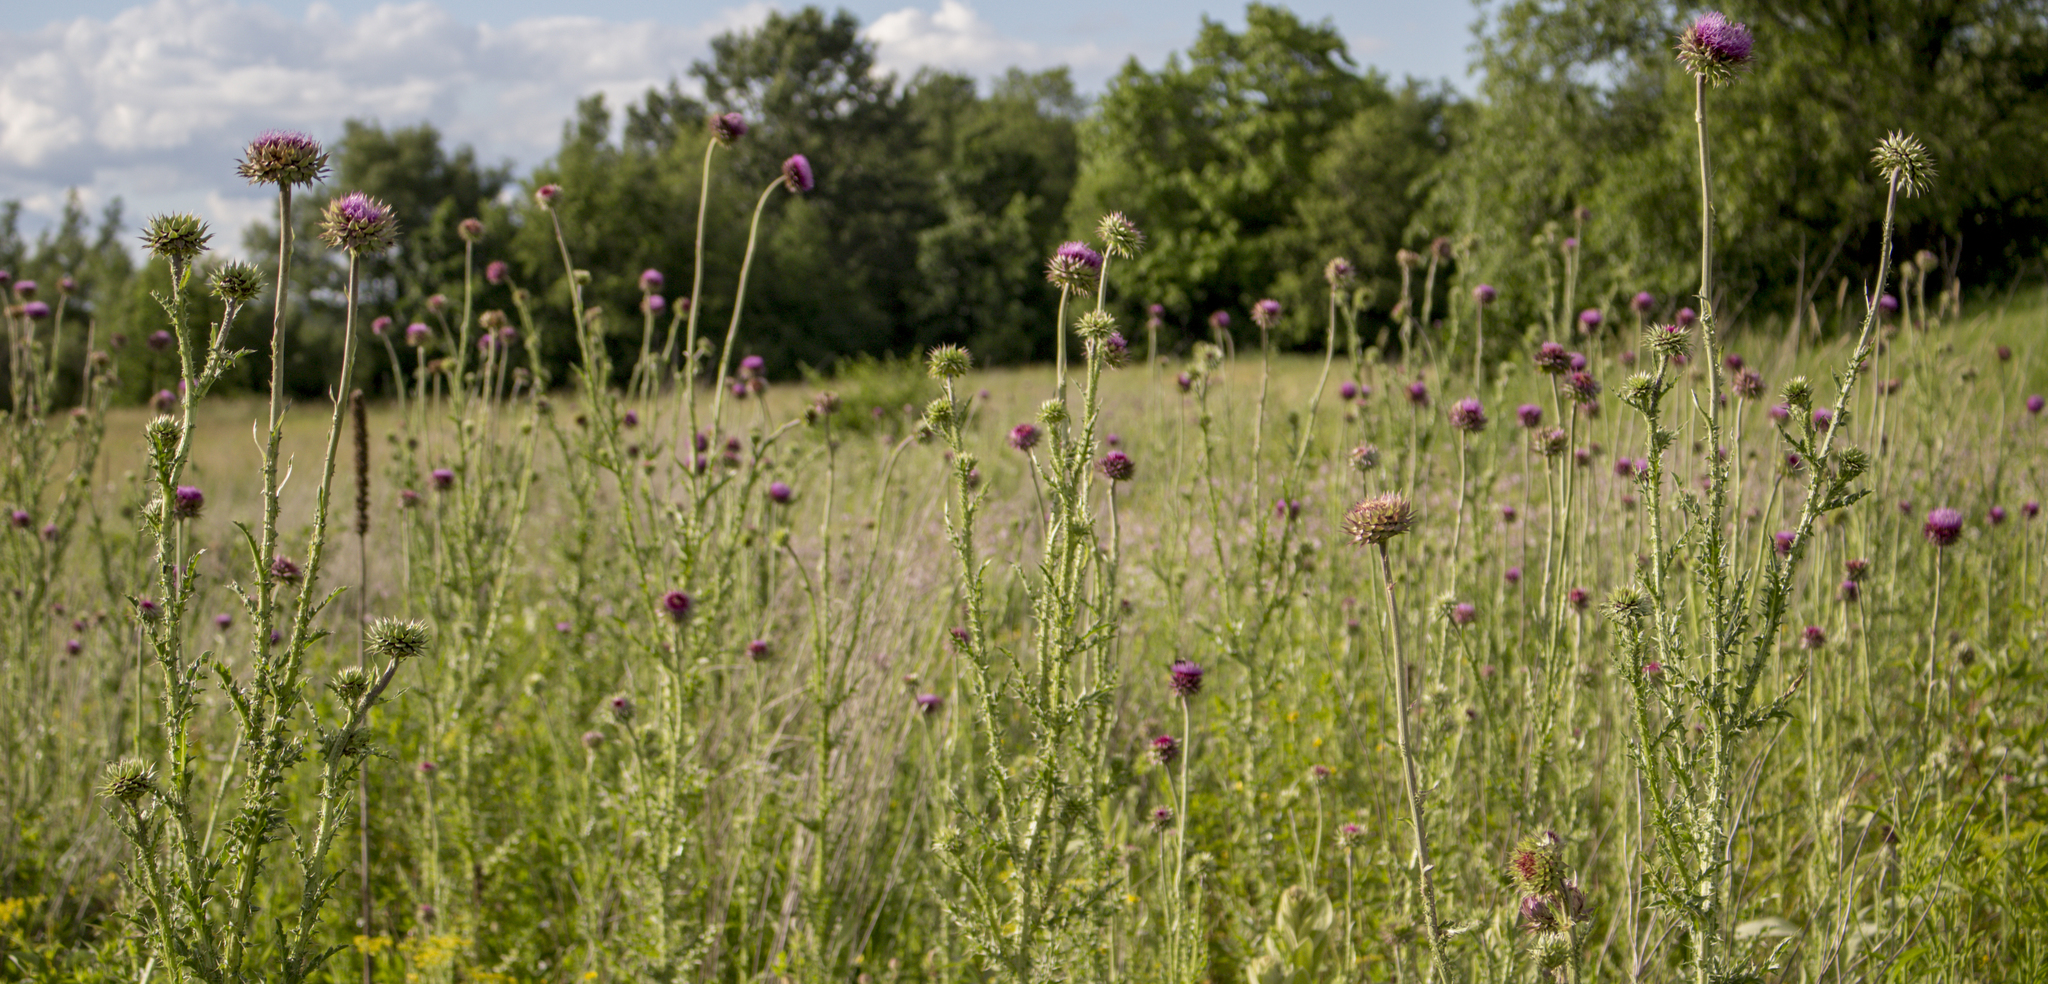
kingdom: Plantae
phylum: Tracheophyta
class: Magnoliopsida
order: Asterales
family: Asteraceae
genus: Carduus
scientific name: Carduus nutans
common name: Musk thistle
